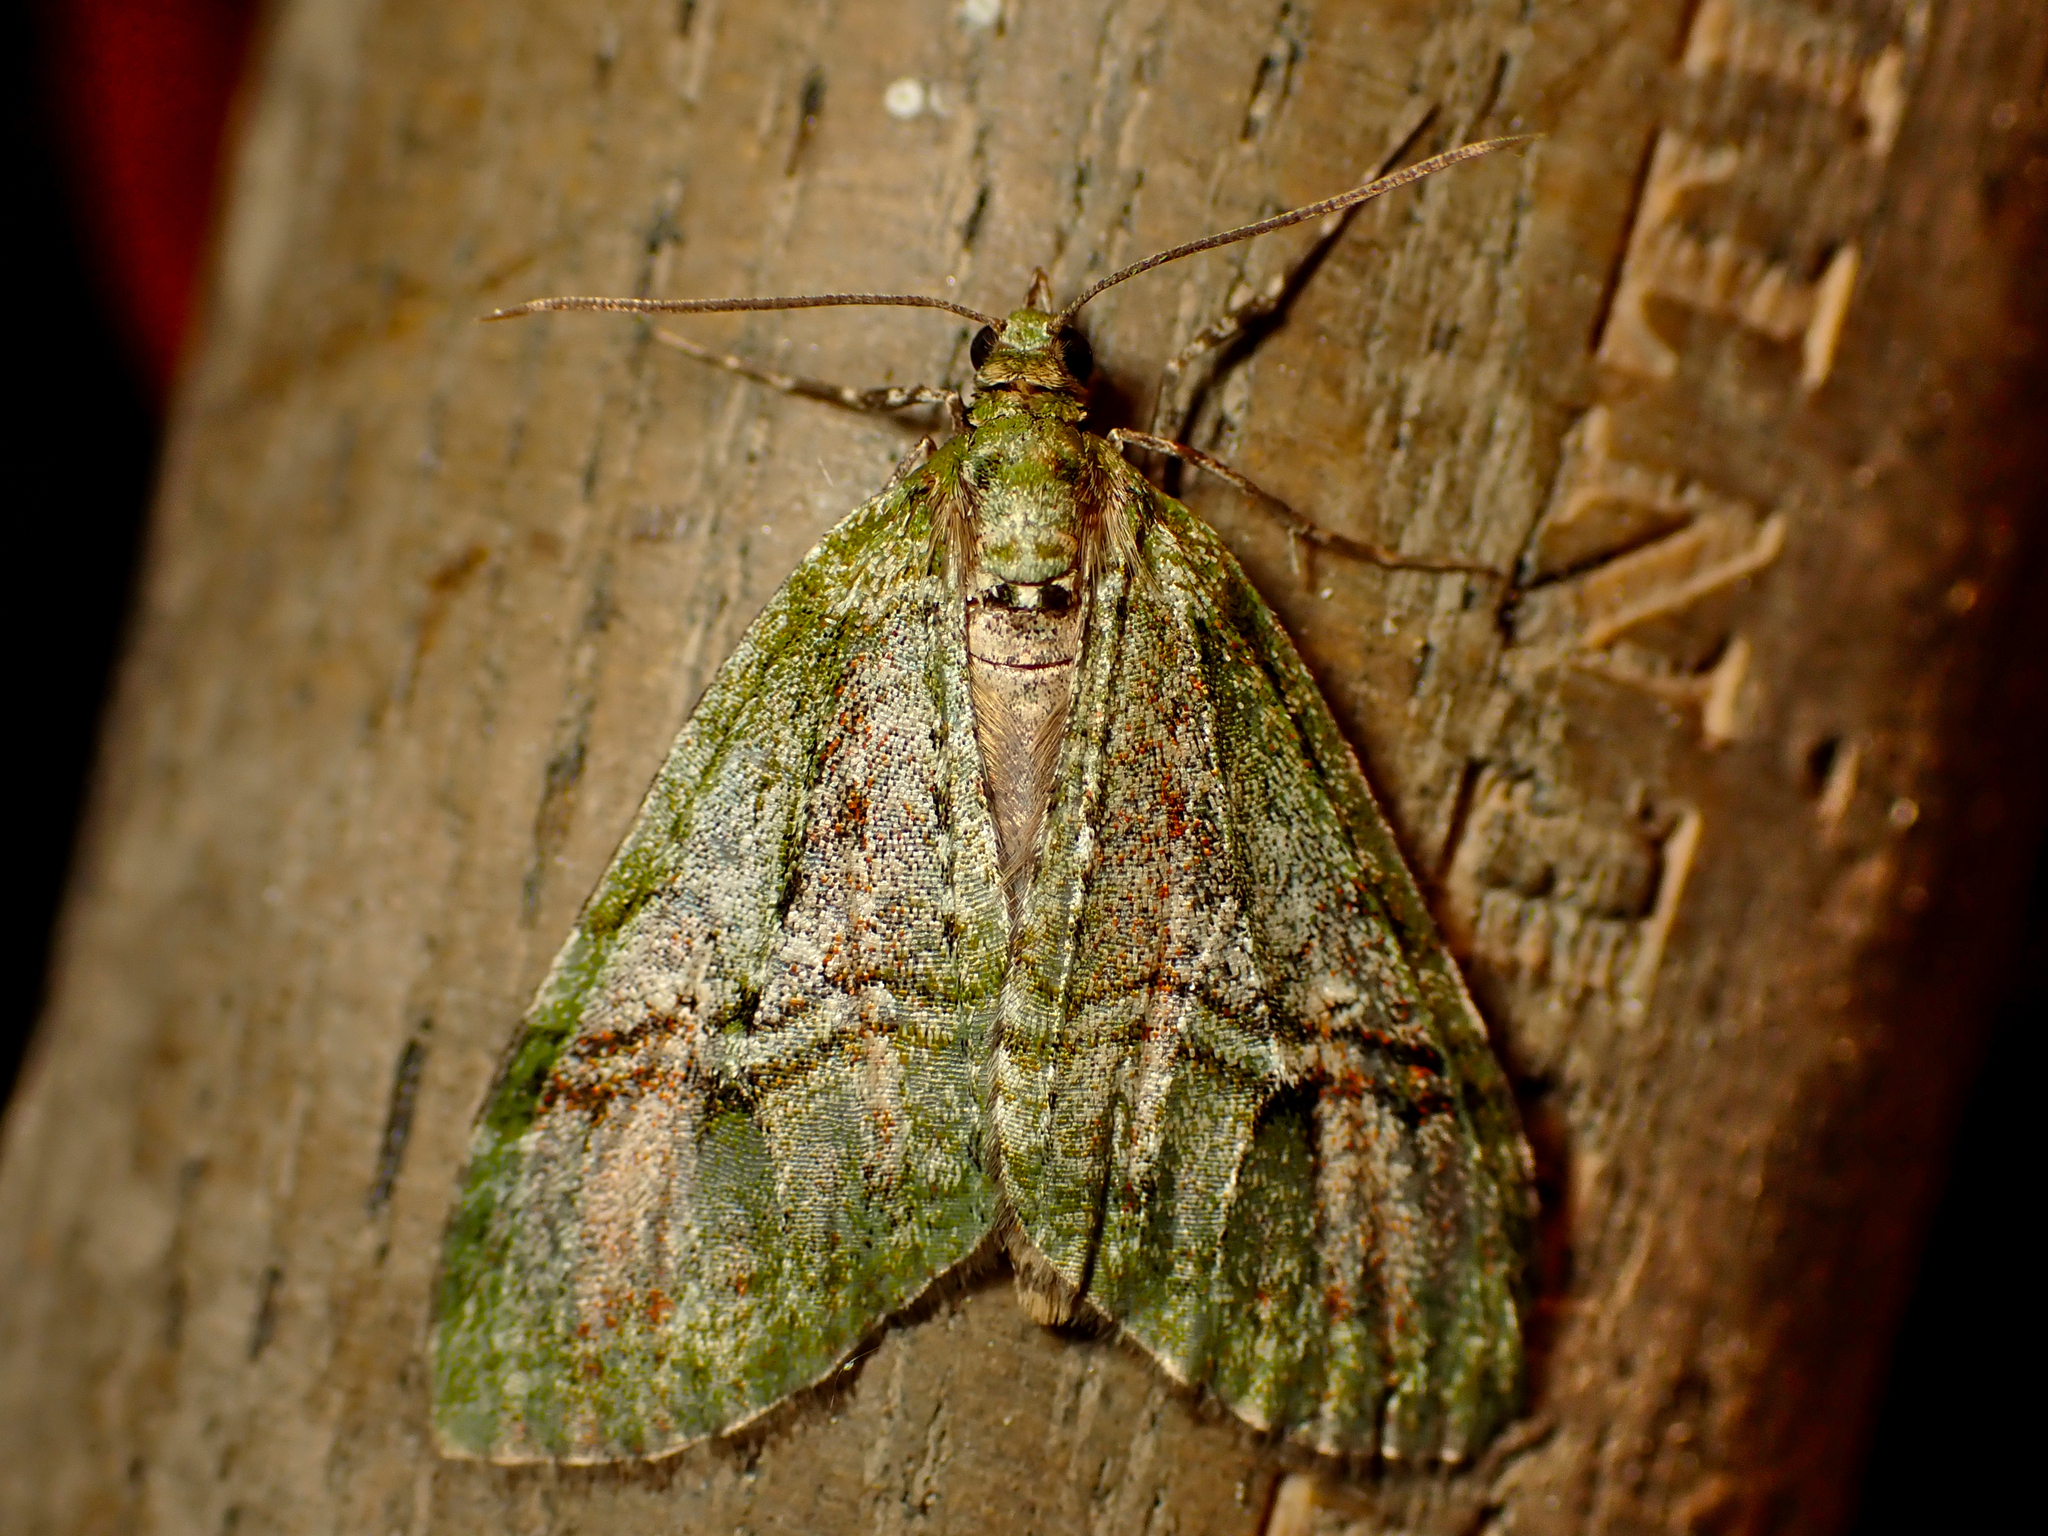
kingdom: Animalia
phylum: Arthropoda
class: Insecta
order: Lepidoptera
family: Geometridae
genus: Tatosoma
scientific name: Tatosoma topea
